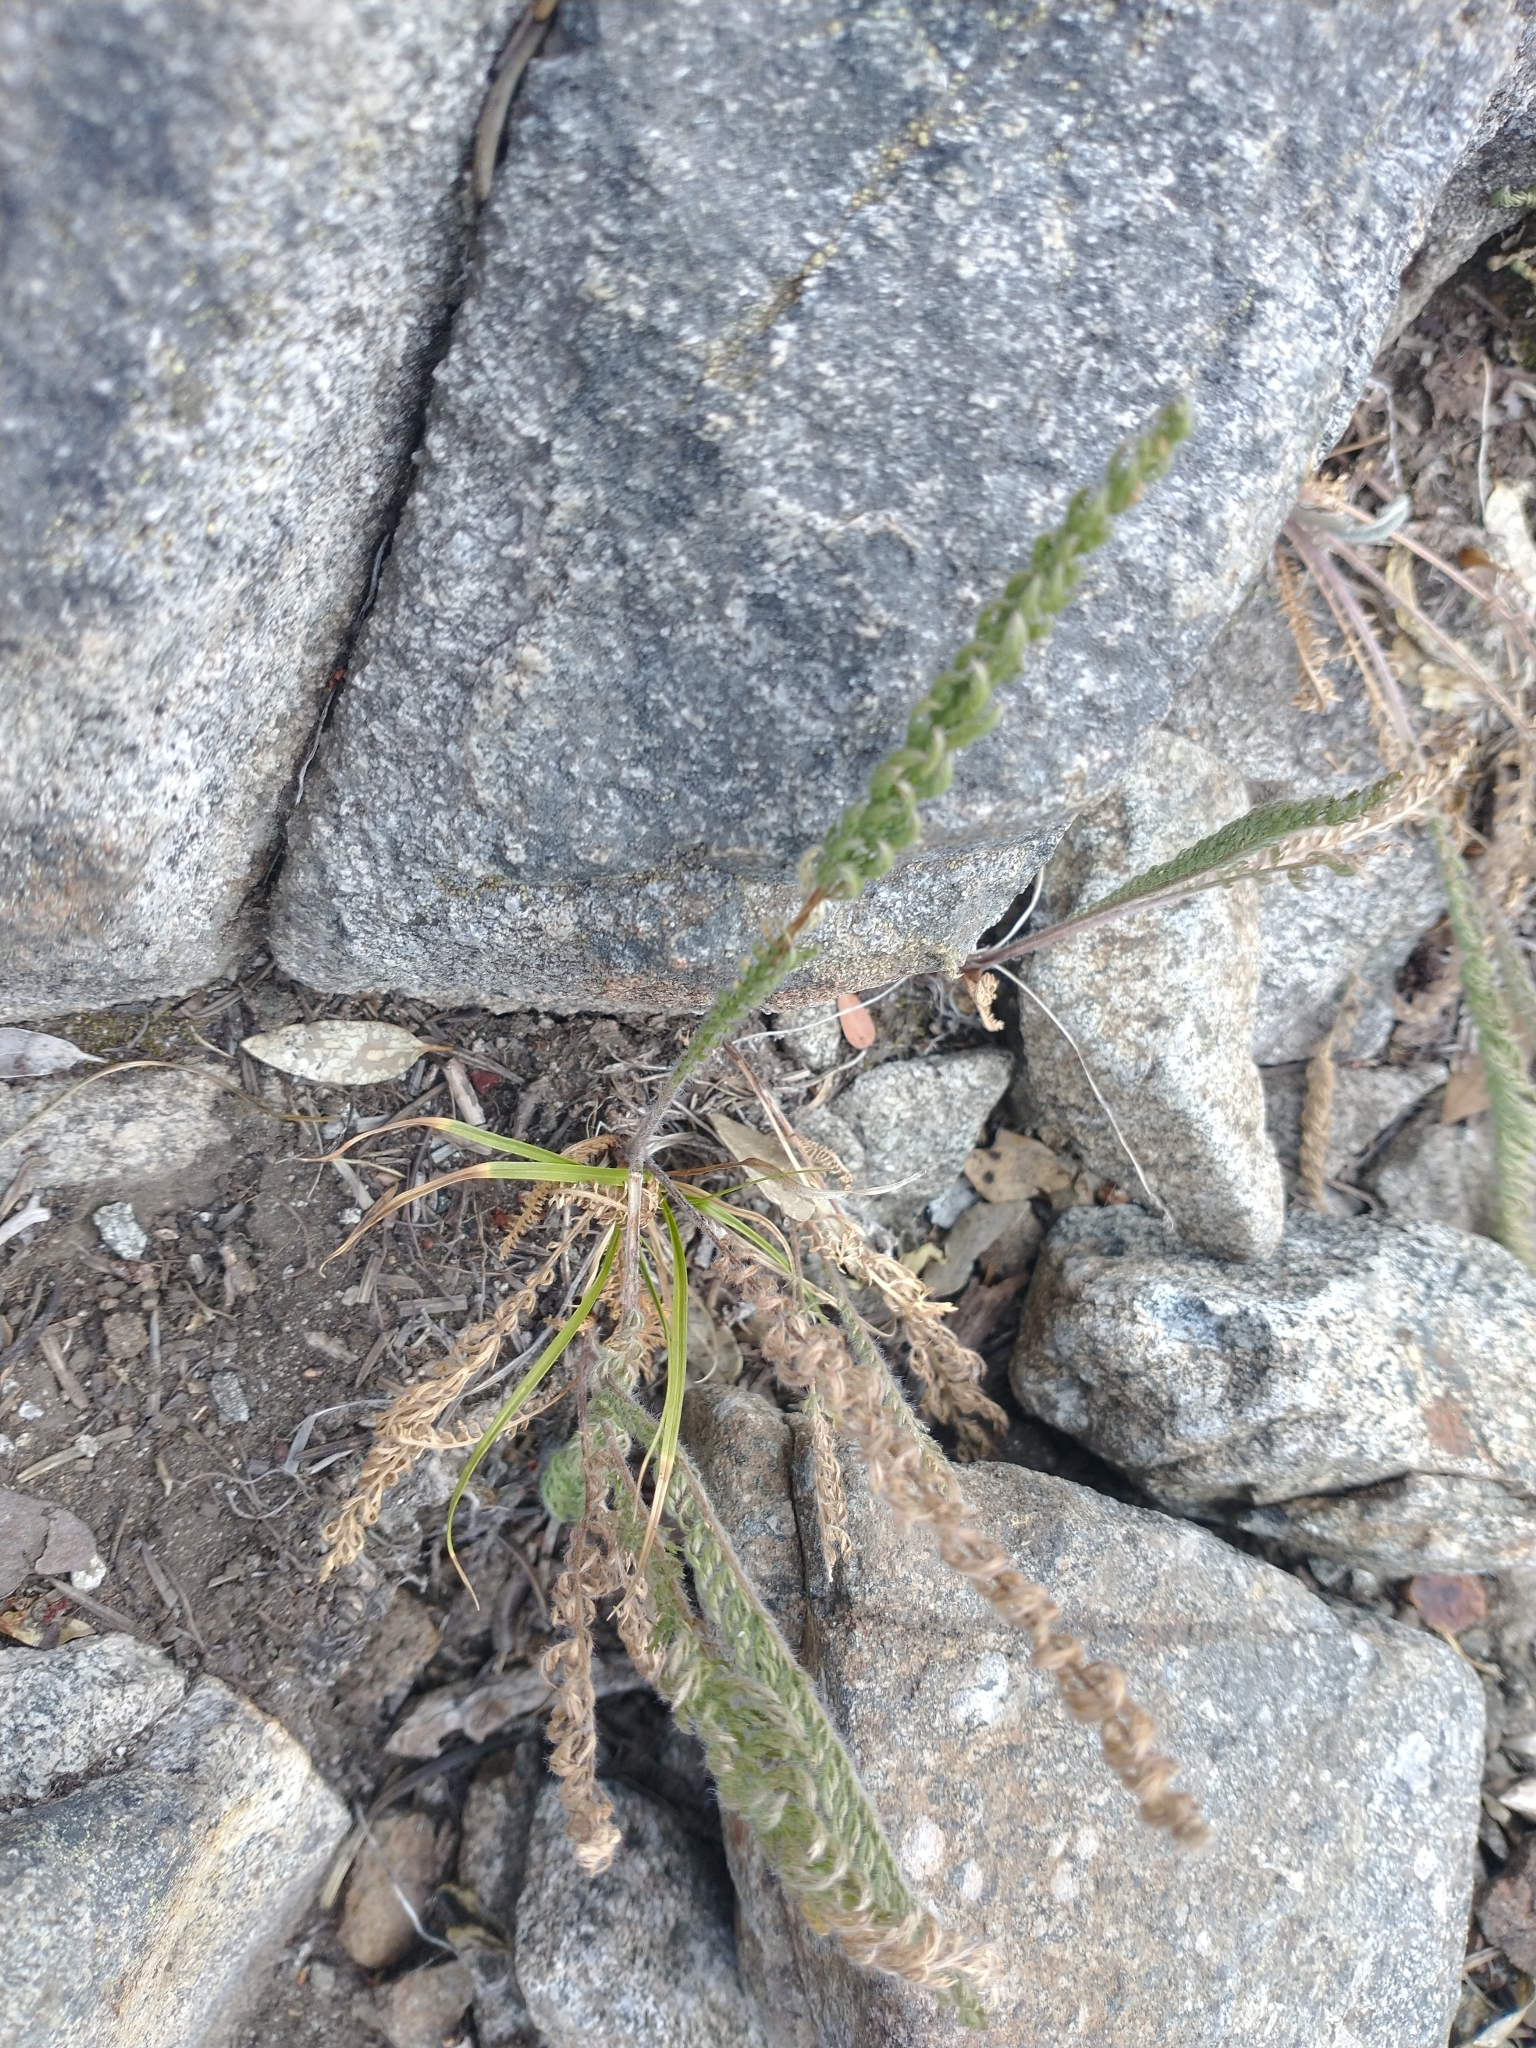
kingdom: Plantae
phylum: Tracheophyta
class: Magnoliopsida
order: Asterales
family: Asteraceae
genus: Achillea
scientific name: Achillea millefolium
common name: Yarrow
